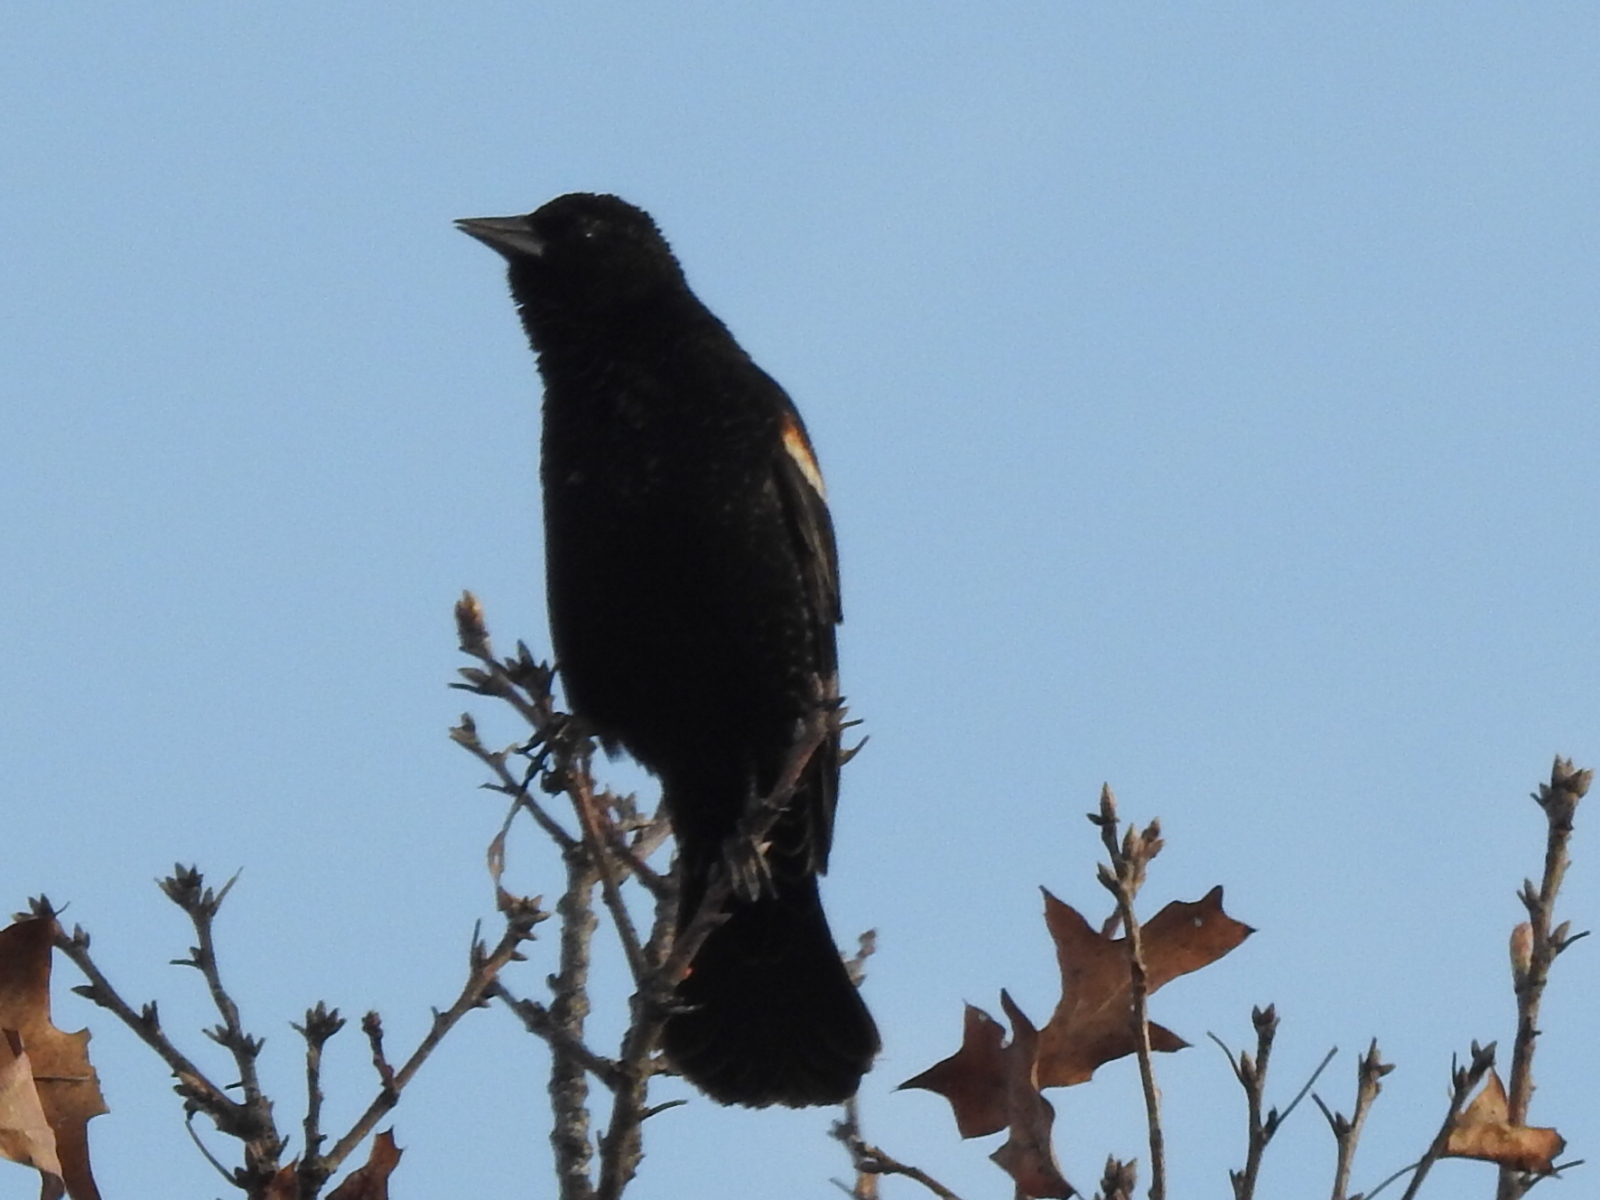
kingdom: Animalia
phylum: Chordata
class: Aves
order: Passeriformes
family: Icteridae
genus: Agelaius
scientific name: Agelaius phoeniceus
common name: Red-winged blackbird
